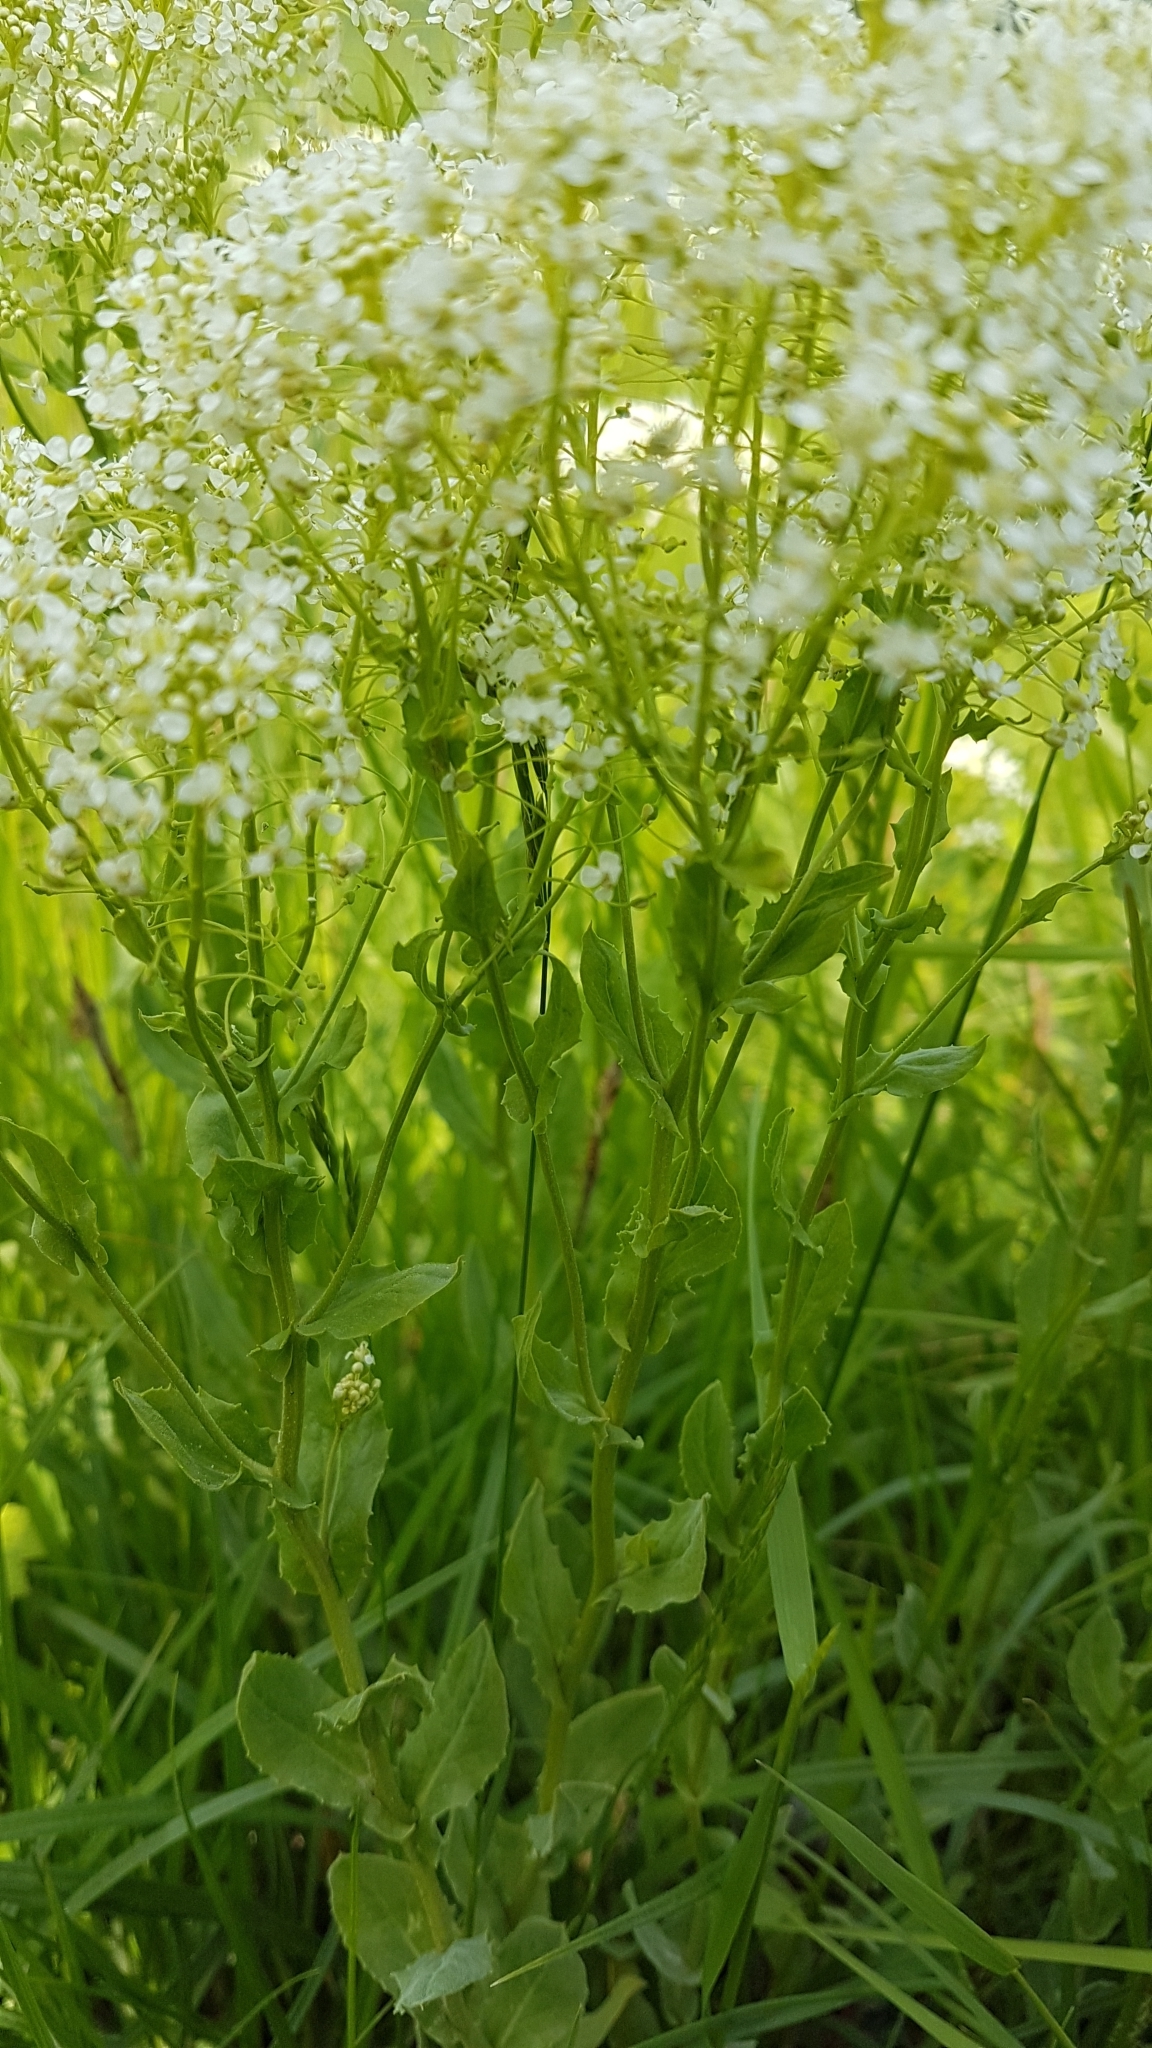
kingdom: Plantae
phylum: Tracheophyta
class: Magnoliopsida
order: Brassicales
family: Brassicaceae
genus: Lepidium
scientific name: Lepidium draba
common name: Hoary cress
